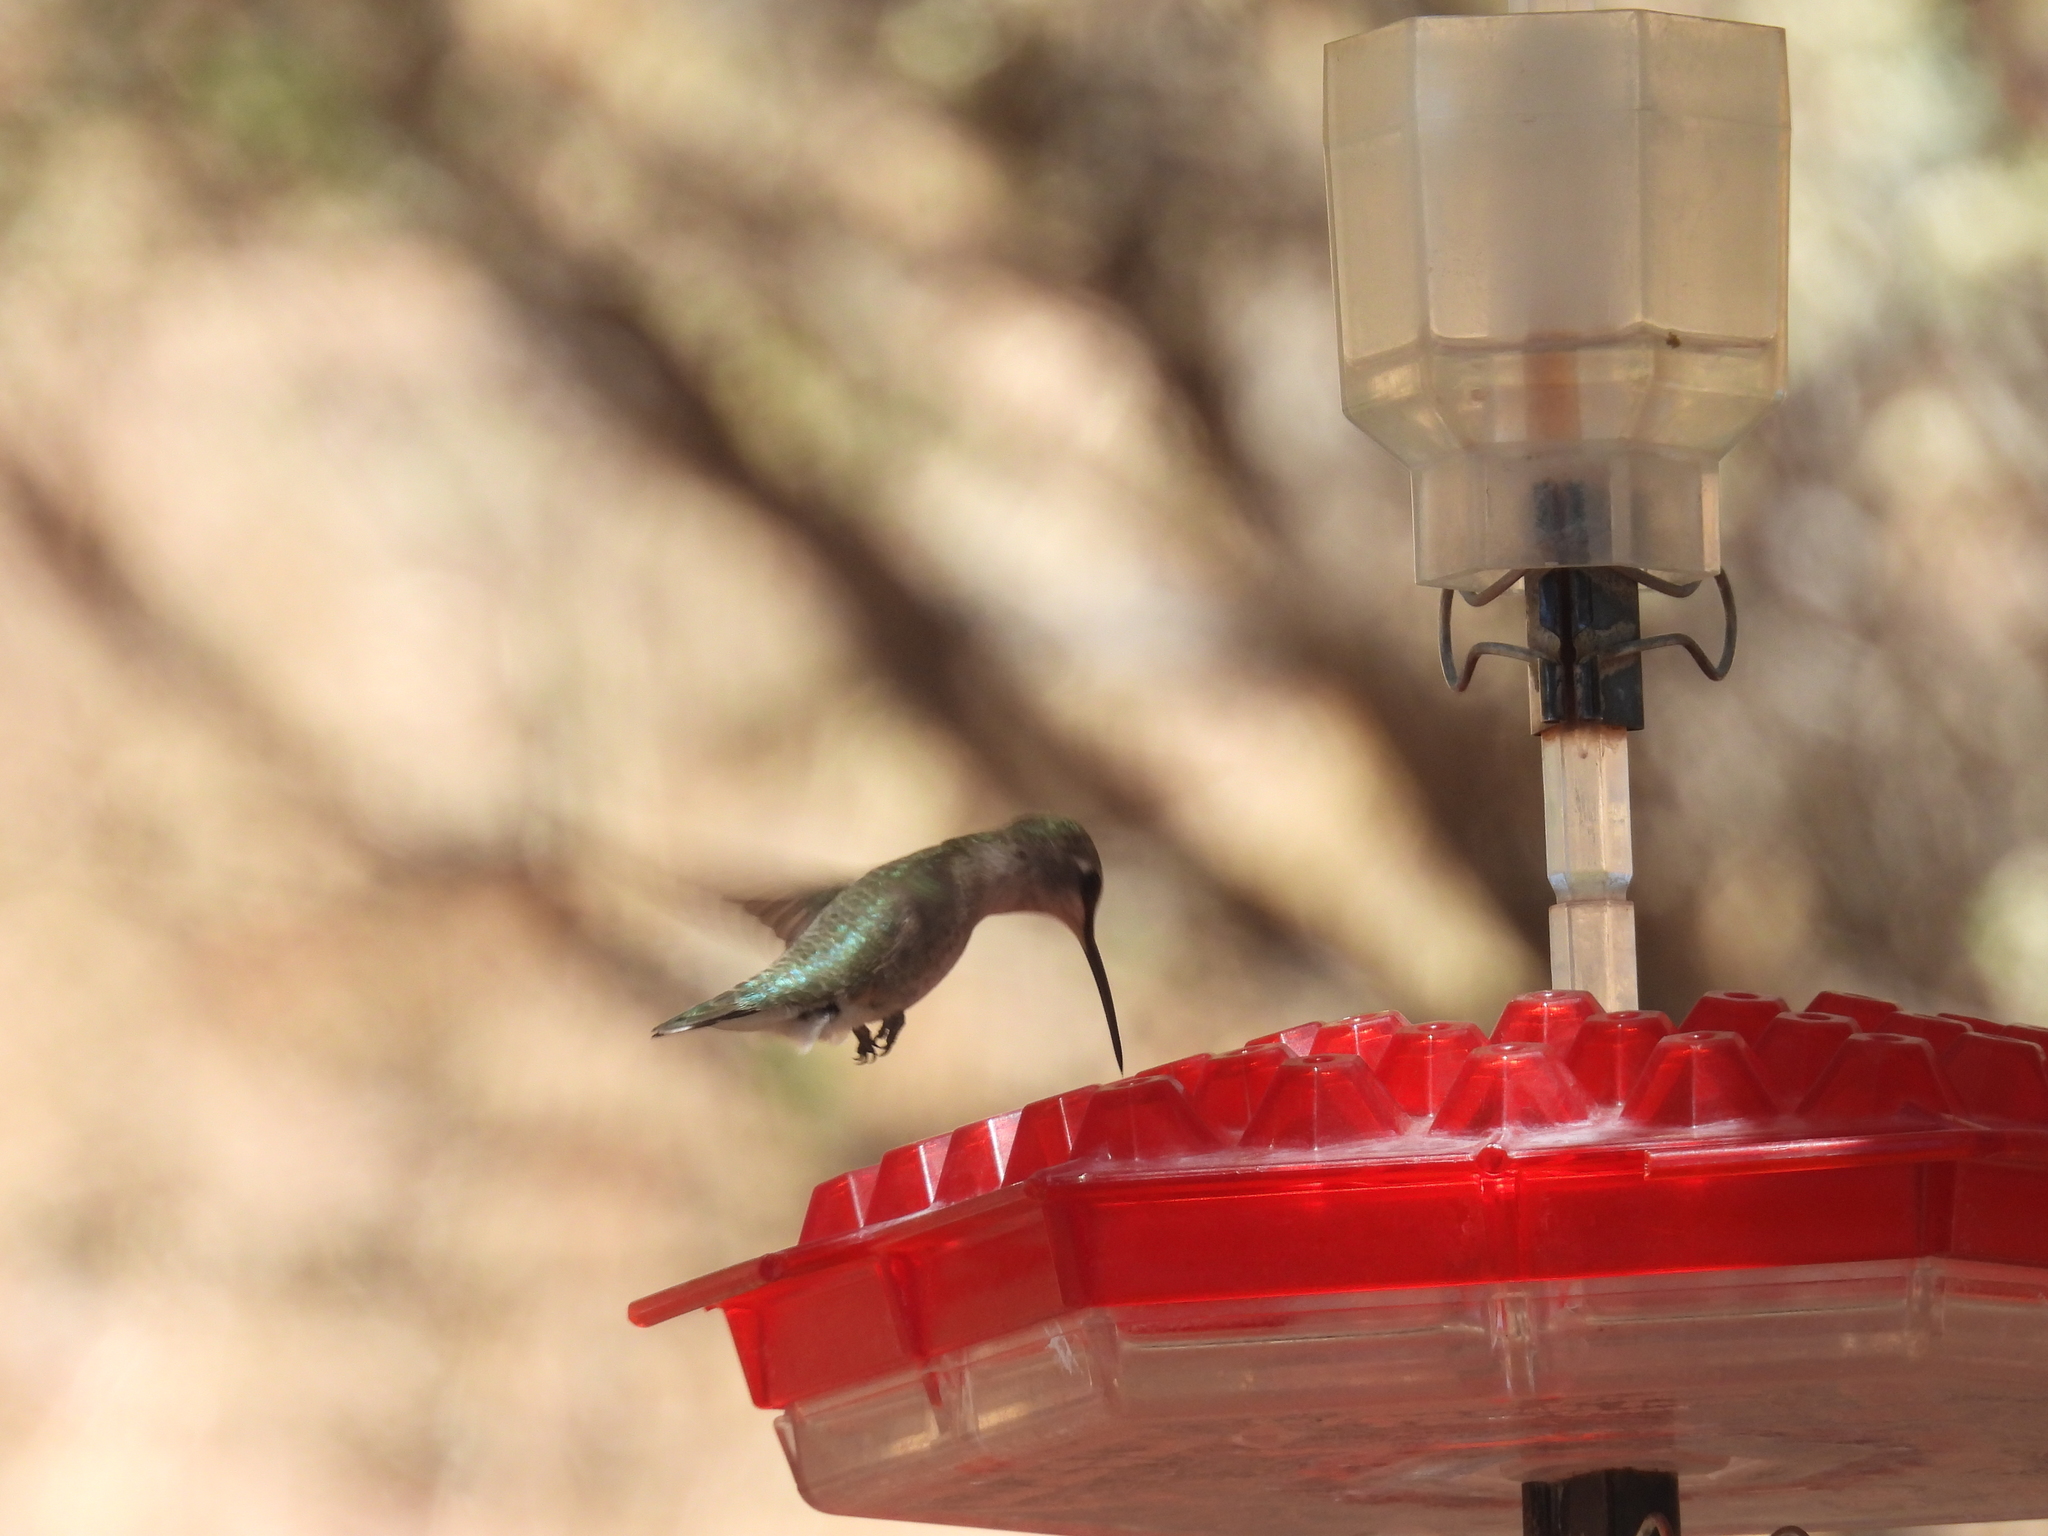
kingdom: Animalia
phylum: Chordata
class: Aves
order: Apodiformes
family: Trochilidae
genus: Archilochus
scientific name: Archilochus alexandri
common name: Black-chinned hummingbird
